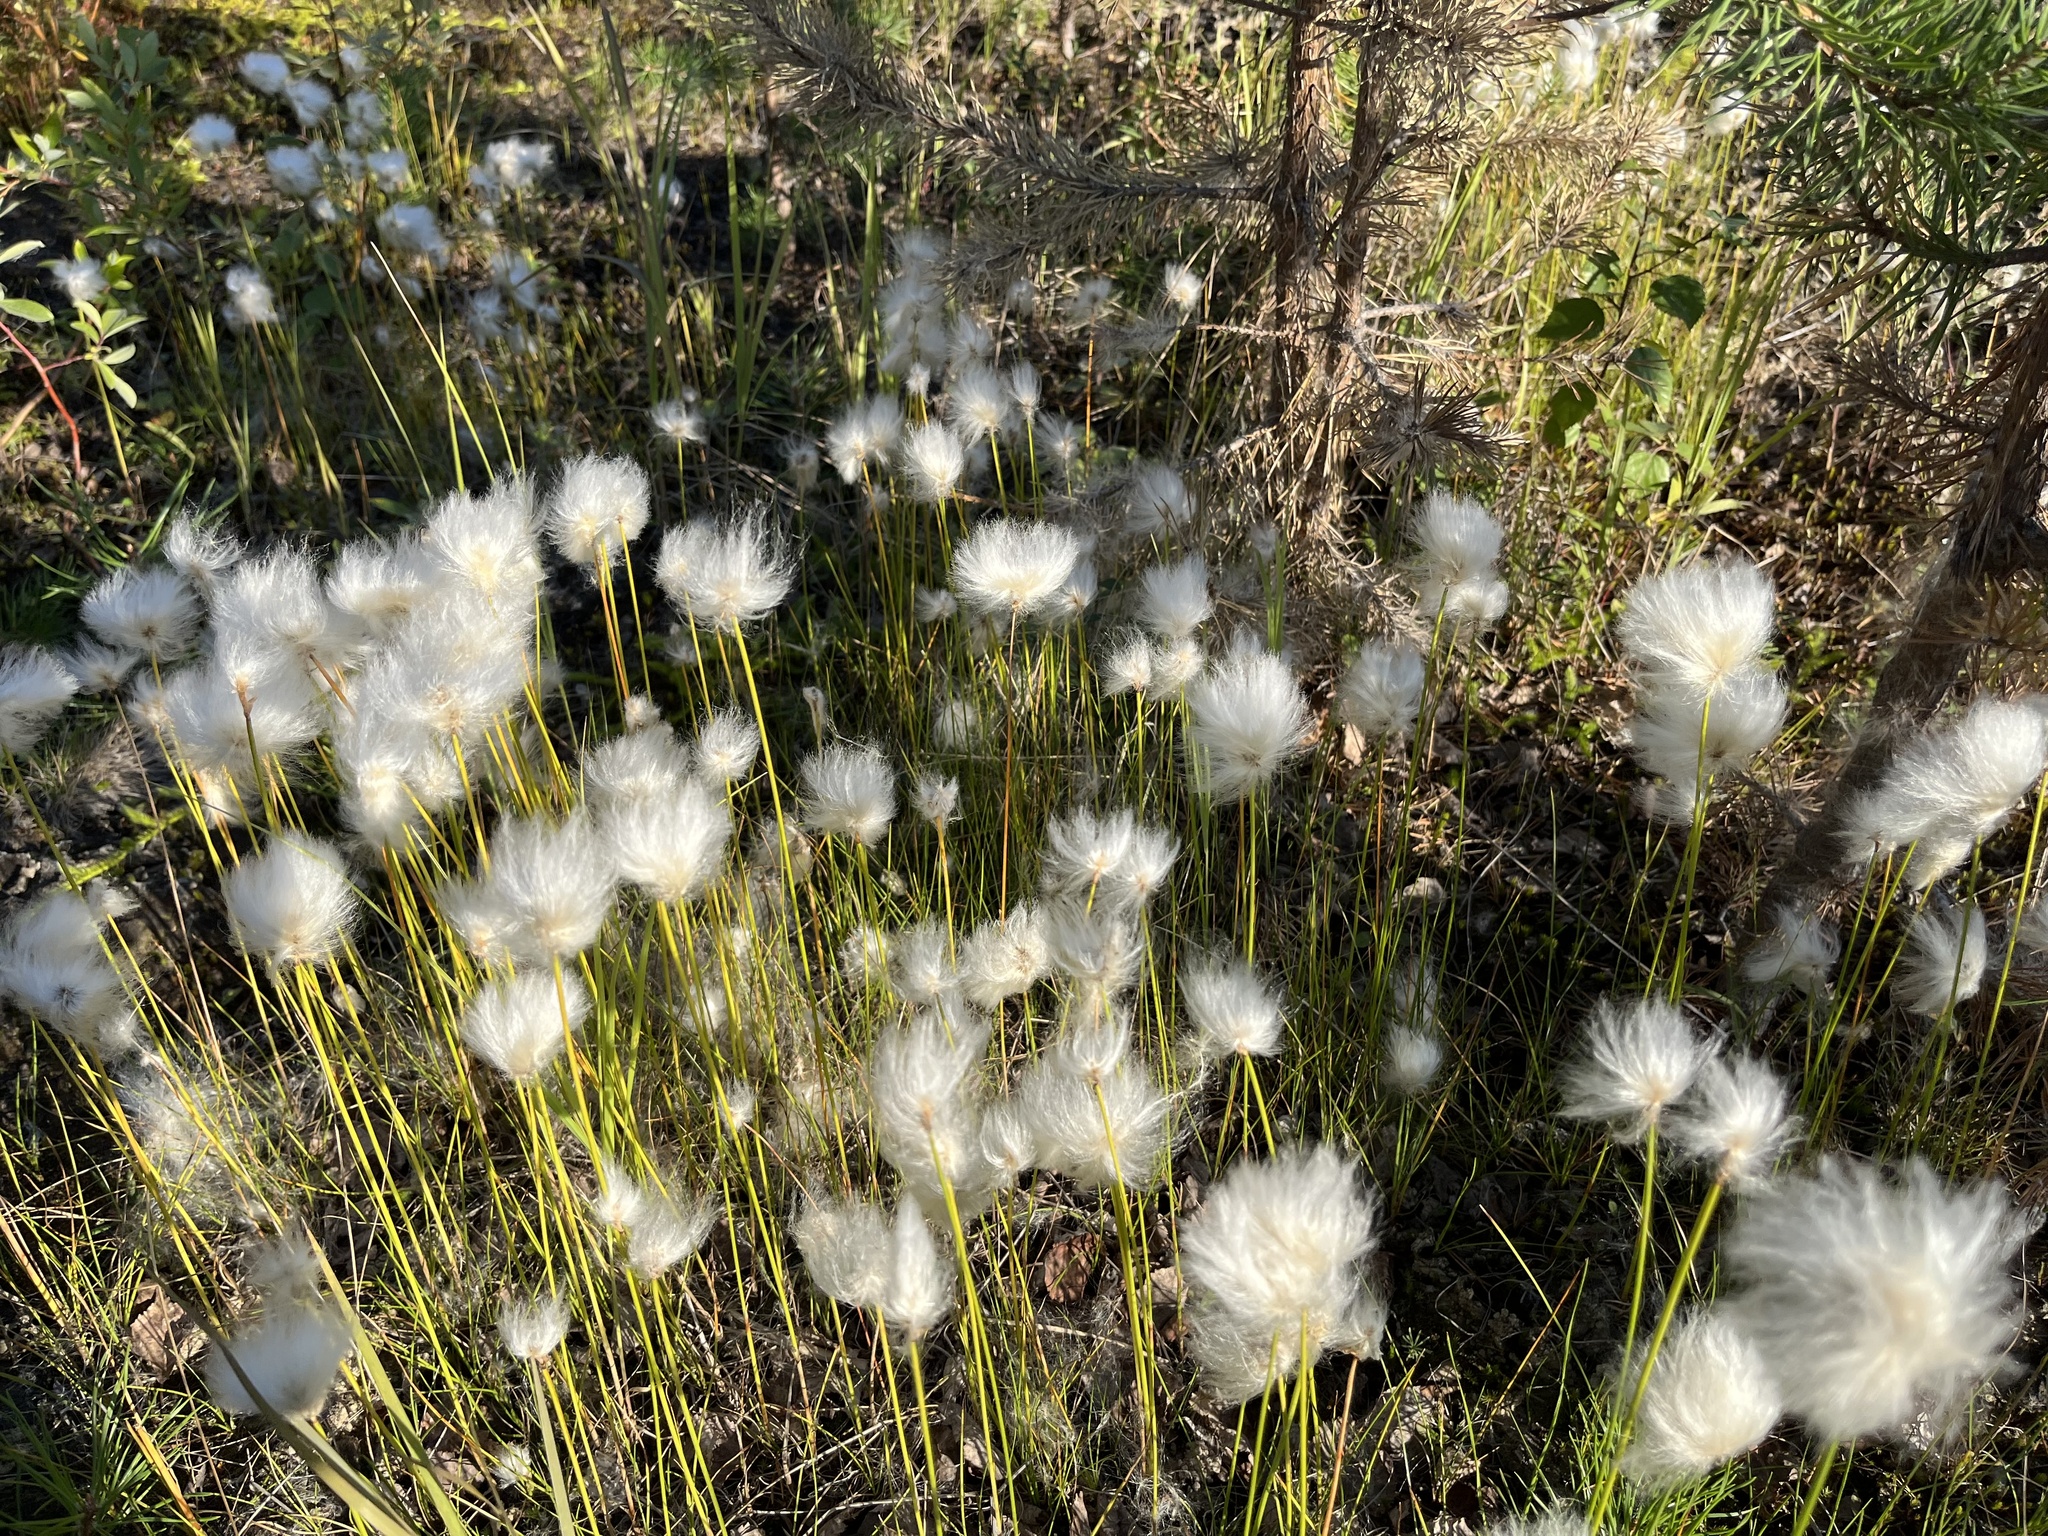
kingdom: Plantae
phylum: Tracheophyta
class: Liliopsida
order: Poales
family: Cyperaceae
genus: Eriophorum
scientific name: Eriophorum scheuchzeri
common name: Scheuchzer's cottongrass
